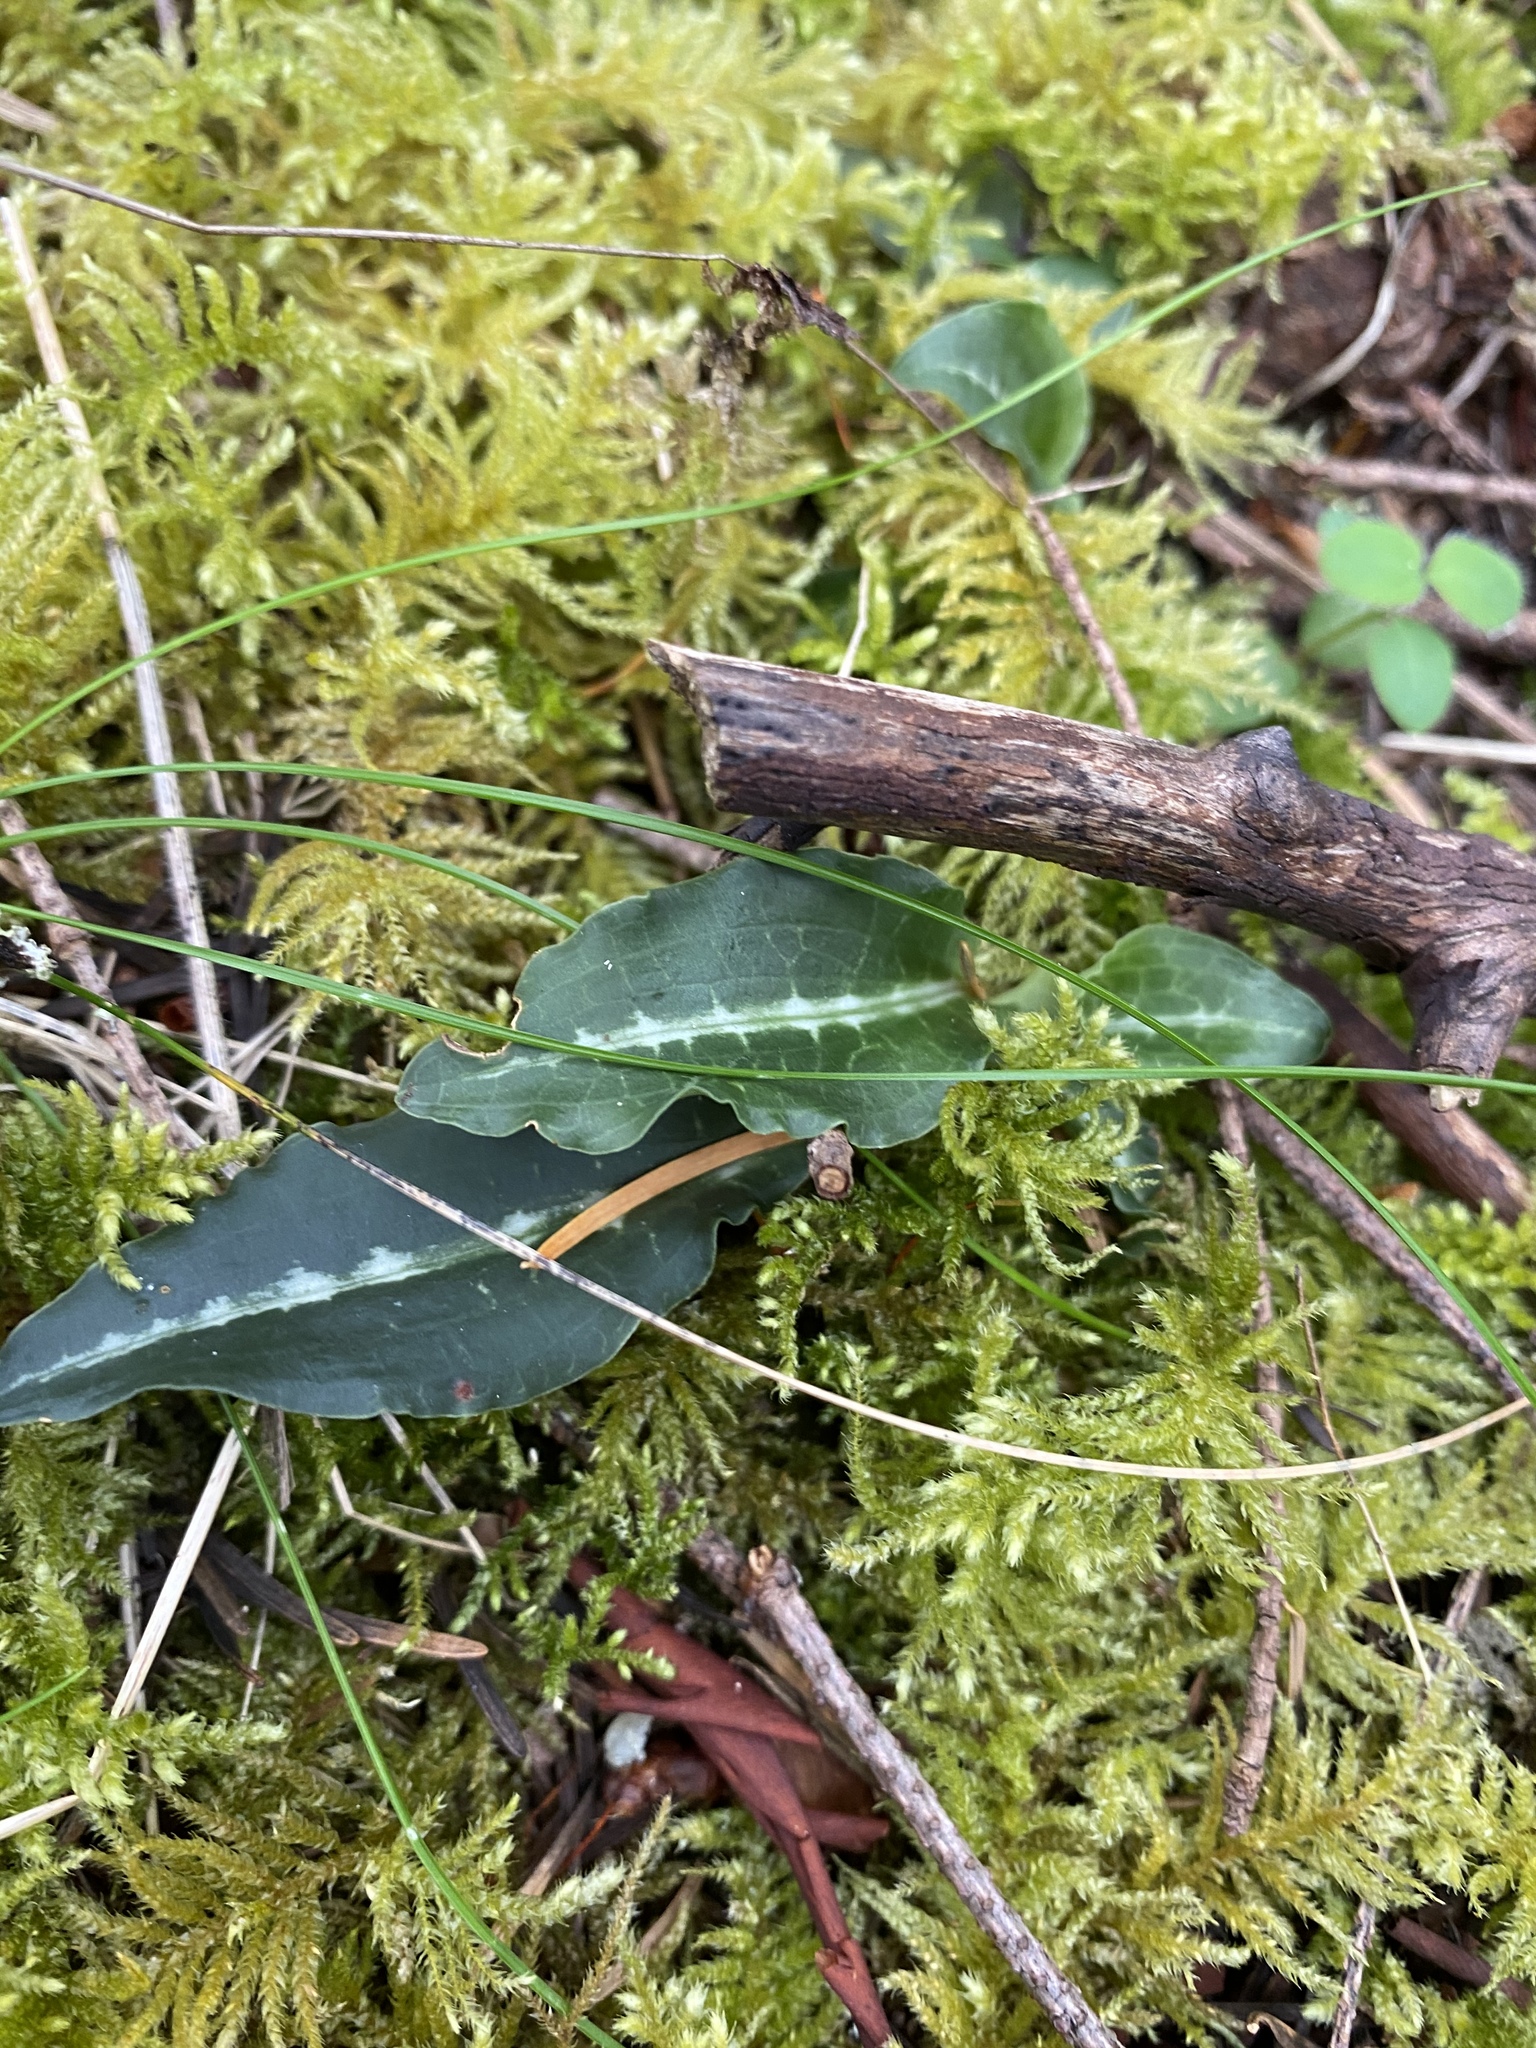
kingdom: Plantae
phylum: Tracheophyta
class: Liliopsida
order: Asparagales
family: Orchidaceae
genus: Goodyera
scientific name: Goodyera oblongifolia
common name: Giant rattlesnake-plantain
